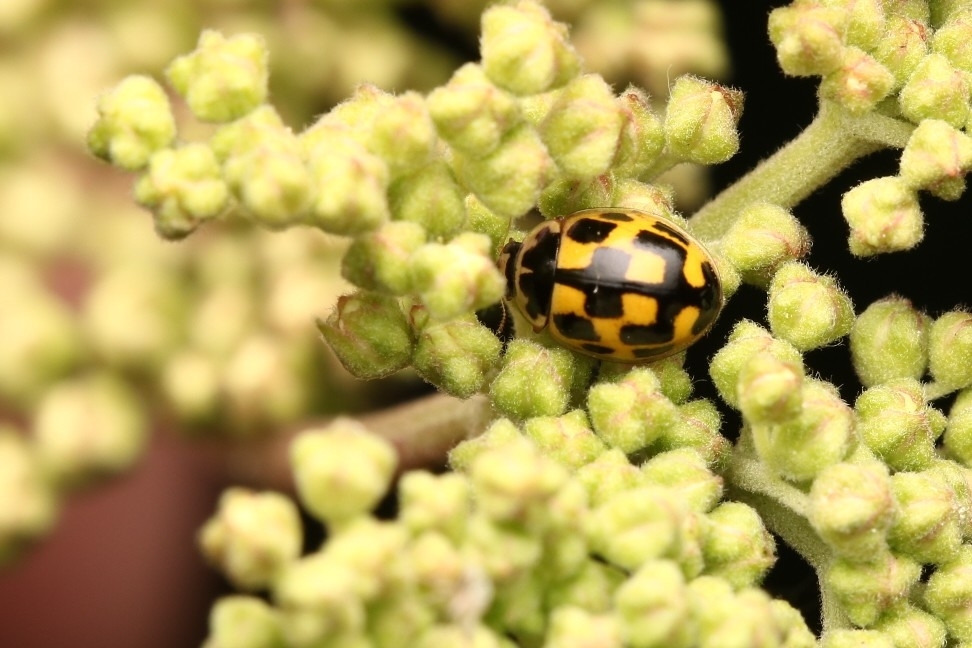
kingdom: Animalia
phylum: Arthropoda
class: Insecta
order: Coleoptera
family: Coccinellidae
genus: Propylaea
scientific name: Propylaea quatuordecimpunctata
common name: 14-spotted ladybird beetle
